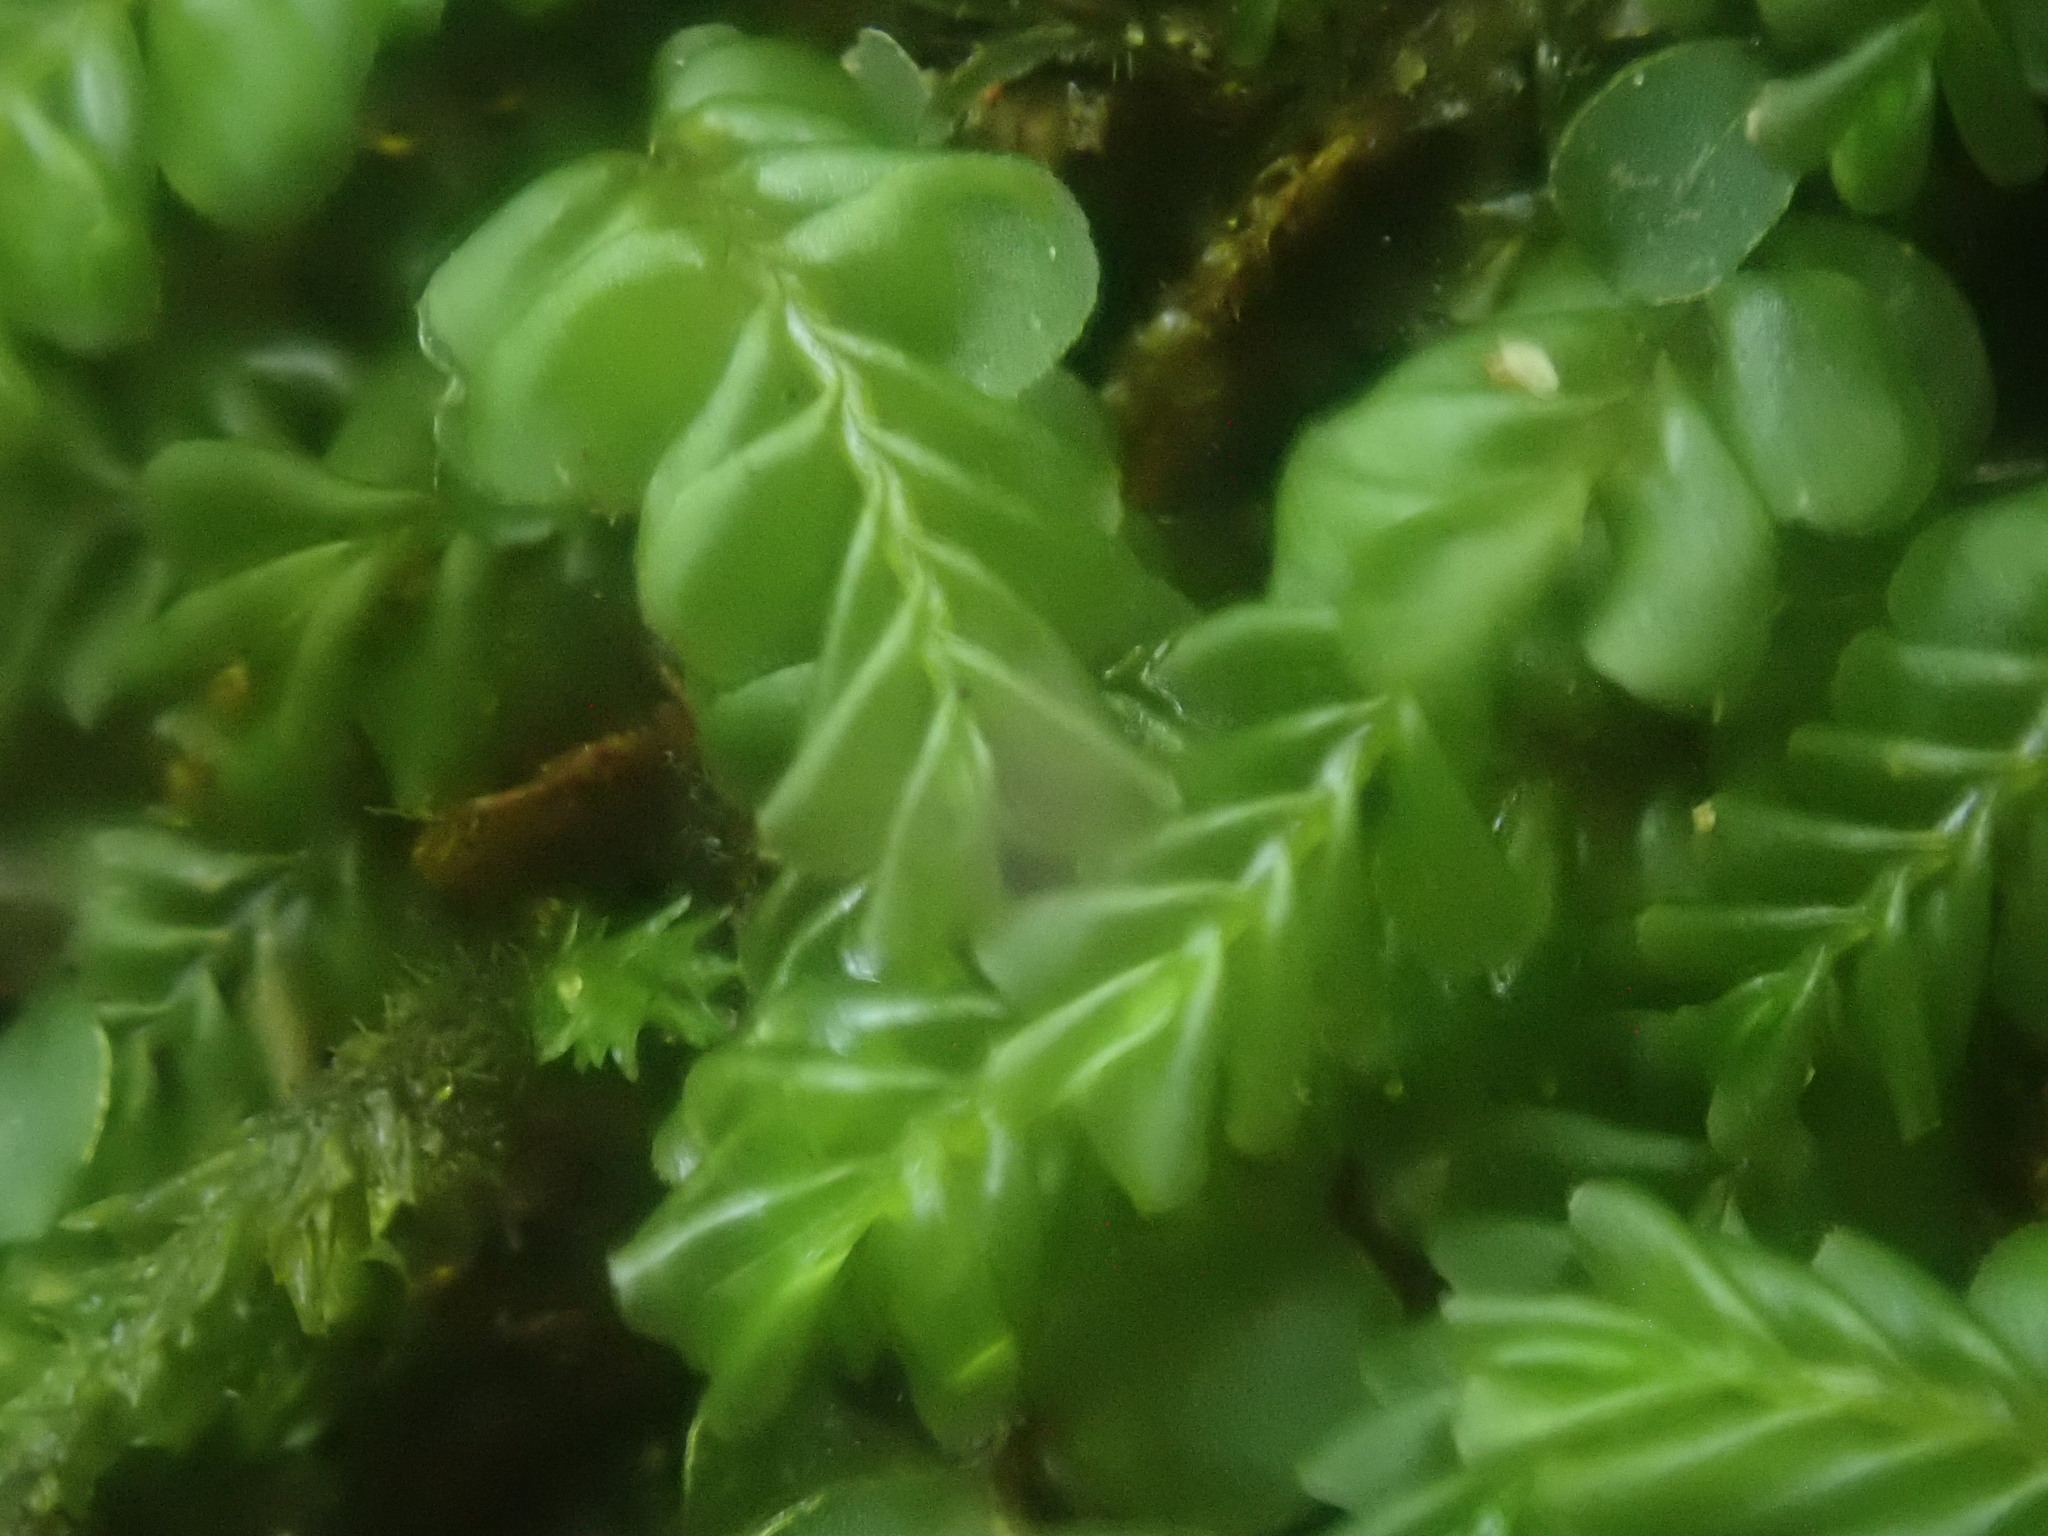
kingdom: Plantae
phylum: Marchantiophyta
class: Jungermanniopsida
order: Jungermanniales
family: Plagiochilaceae
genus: Plagiochila
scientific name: Plagiochila porelloides
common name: Lesser featherwort
